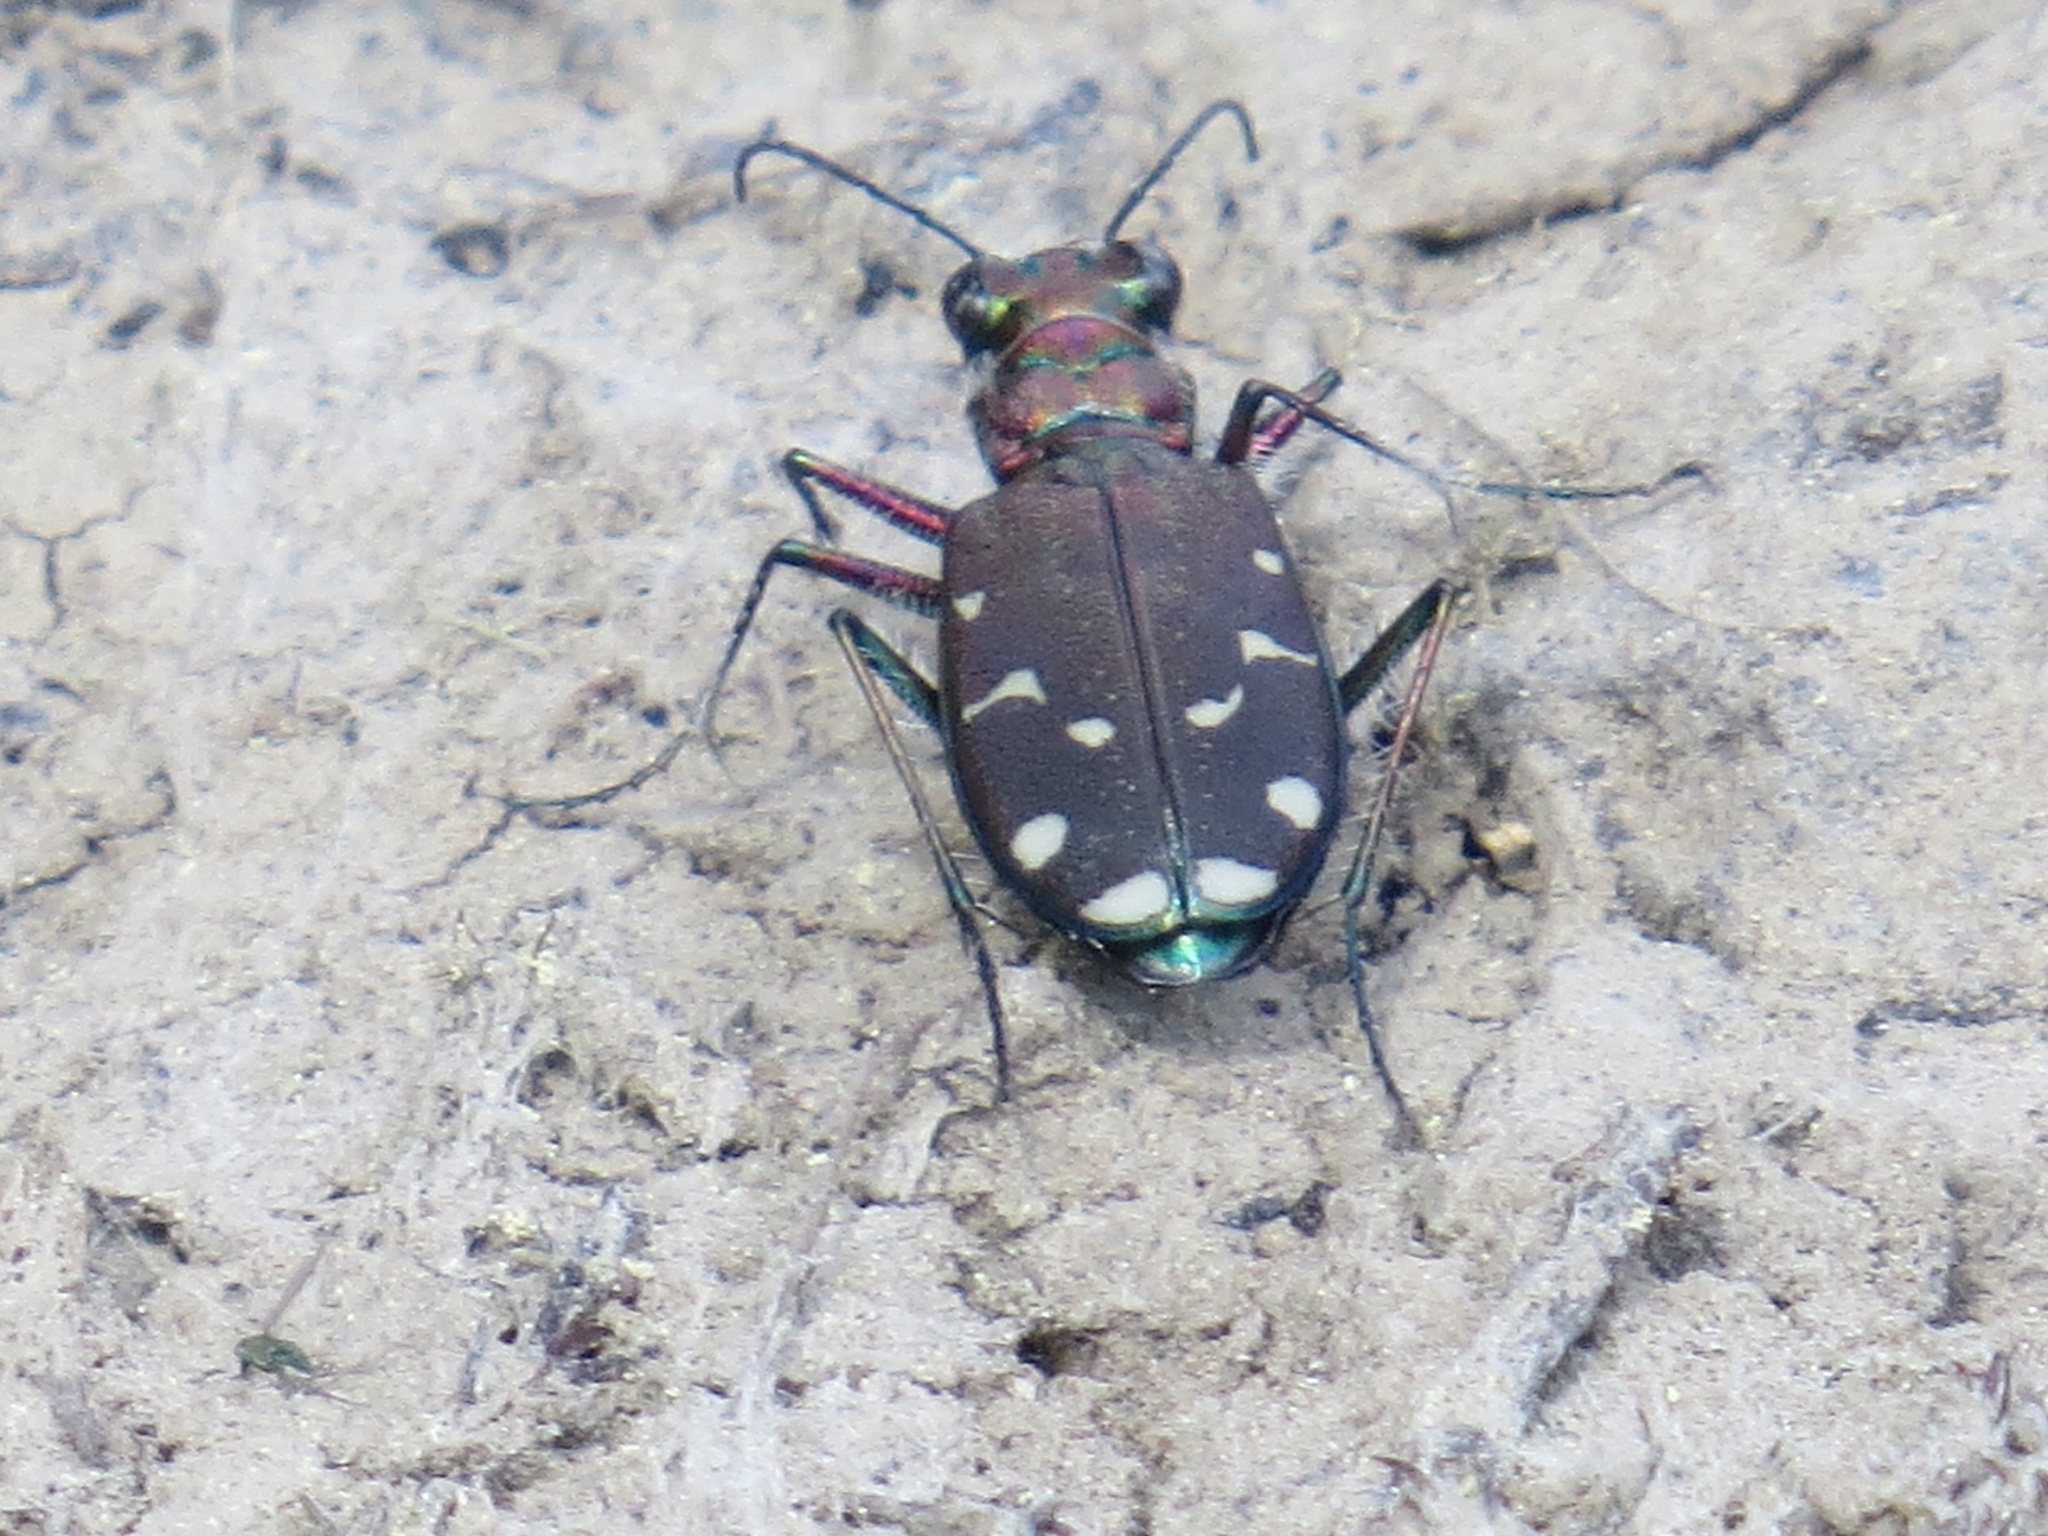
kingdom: Animalia
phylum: Arthropoda
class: Insecta
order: Coleoptera
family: Carabidae
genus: Cicindela
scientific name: Cicindela oregona
